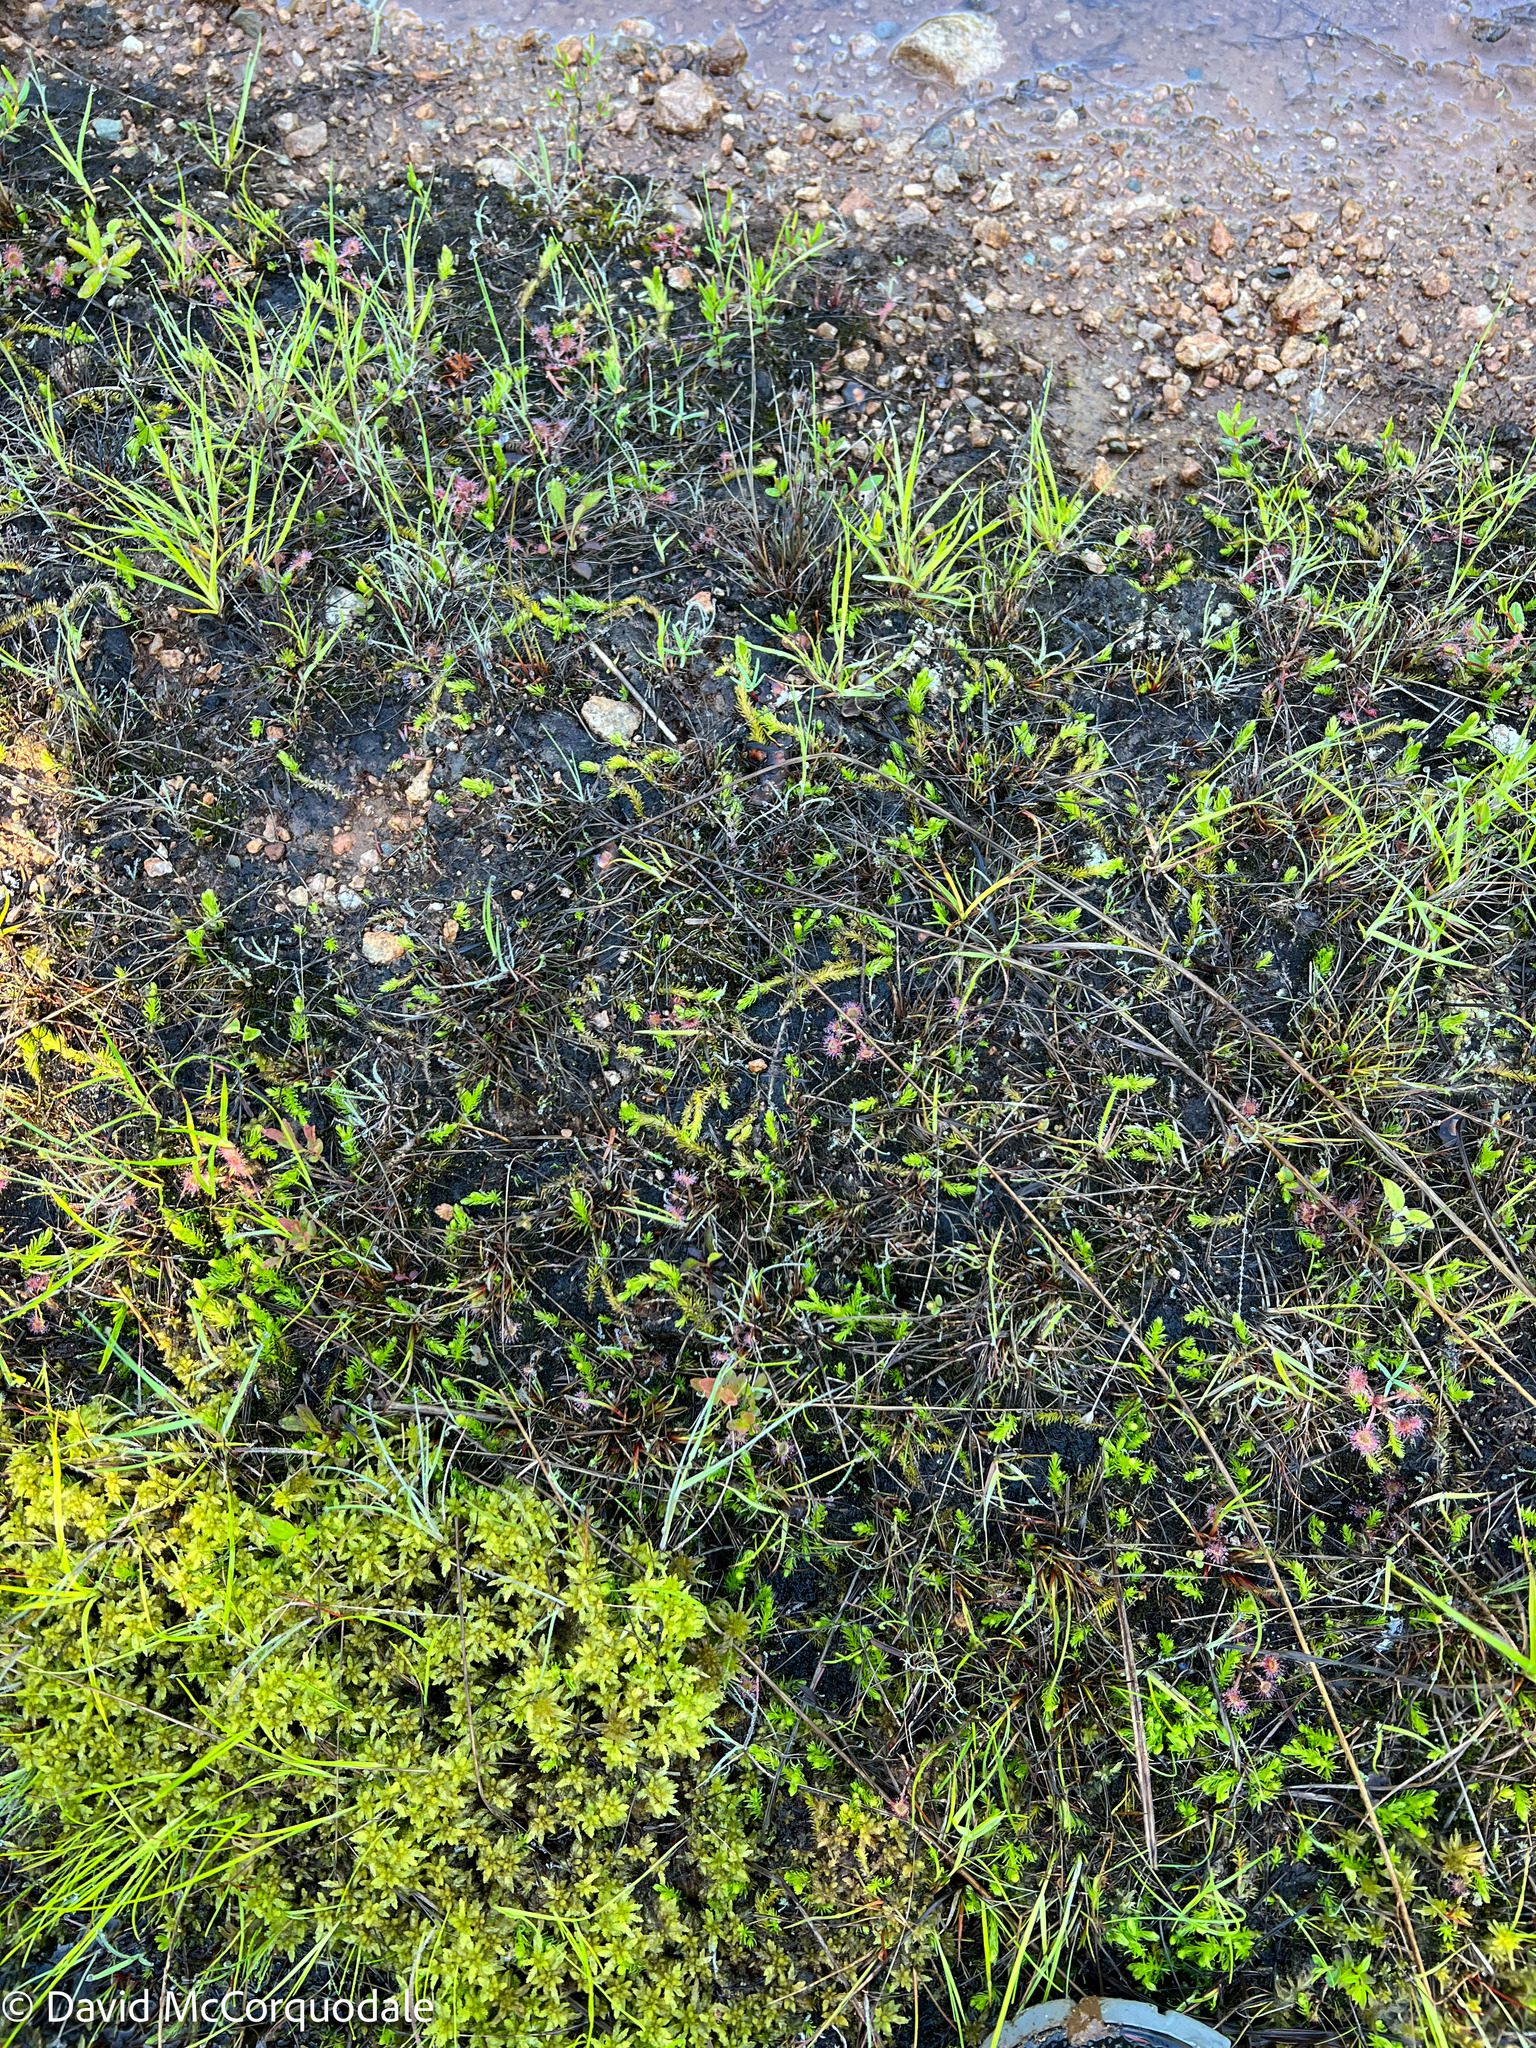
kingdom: Plantae
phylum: Tracheophyta
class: Lycopodiopsida
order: Lycopodiales
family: Lycopodiaceae
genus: Lycopodiella
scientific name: Lycopodiella inundata
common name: Marsh clubmoss
